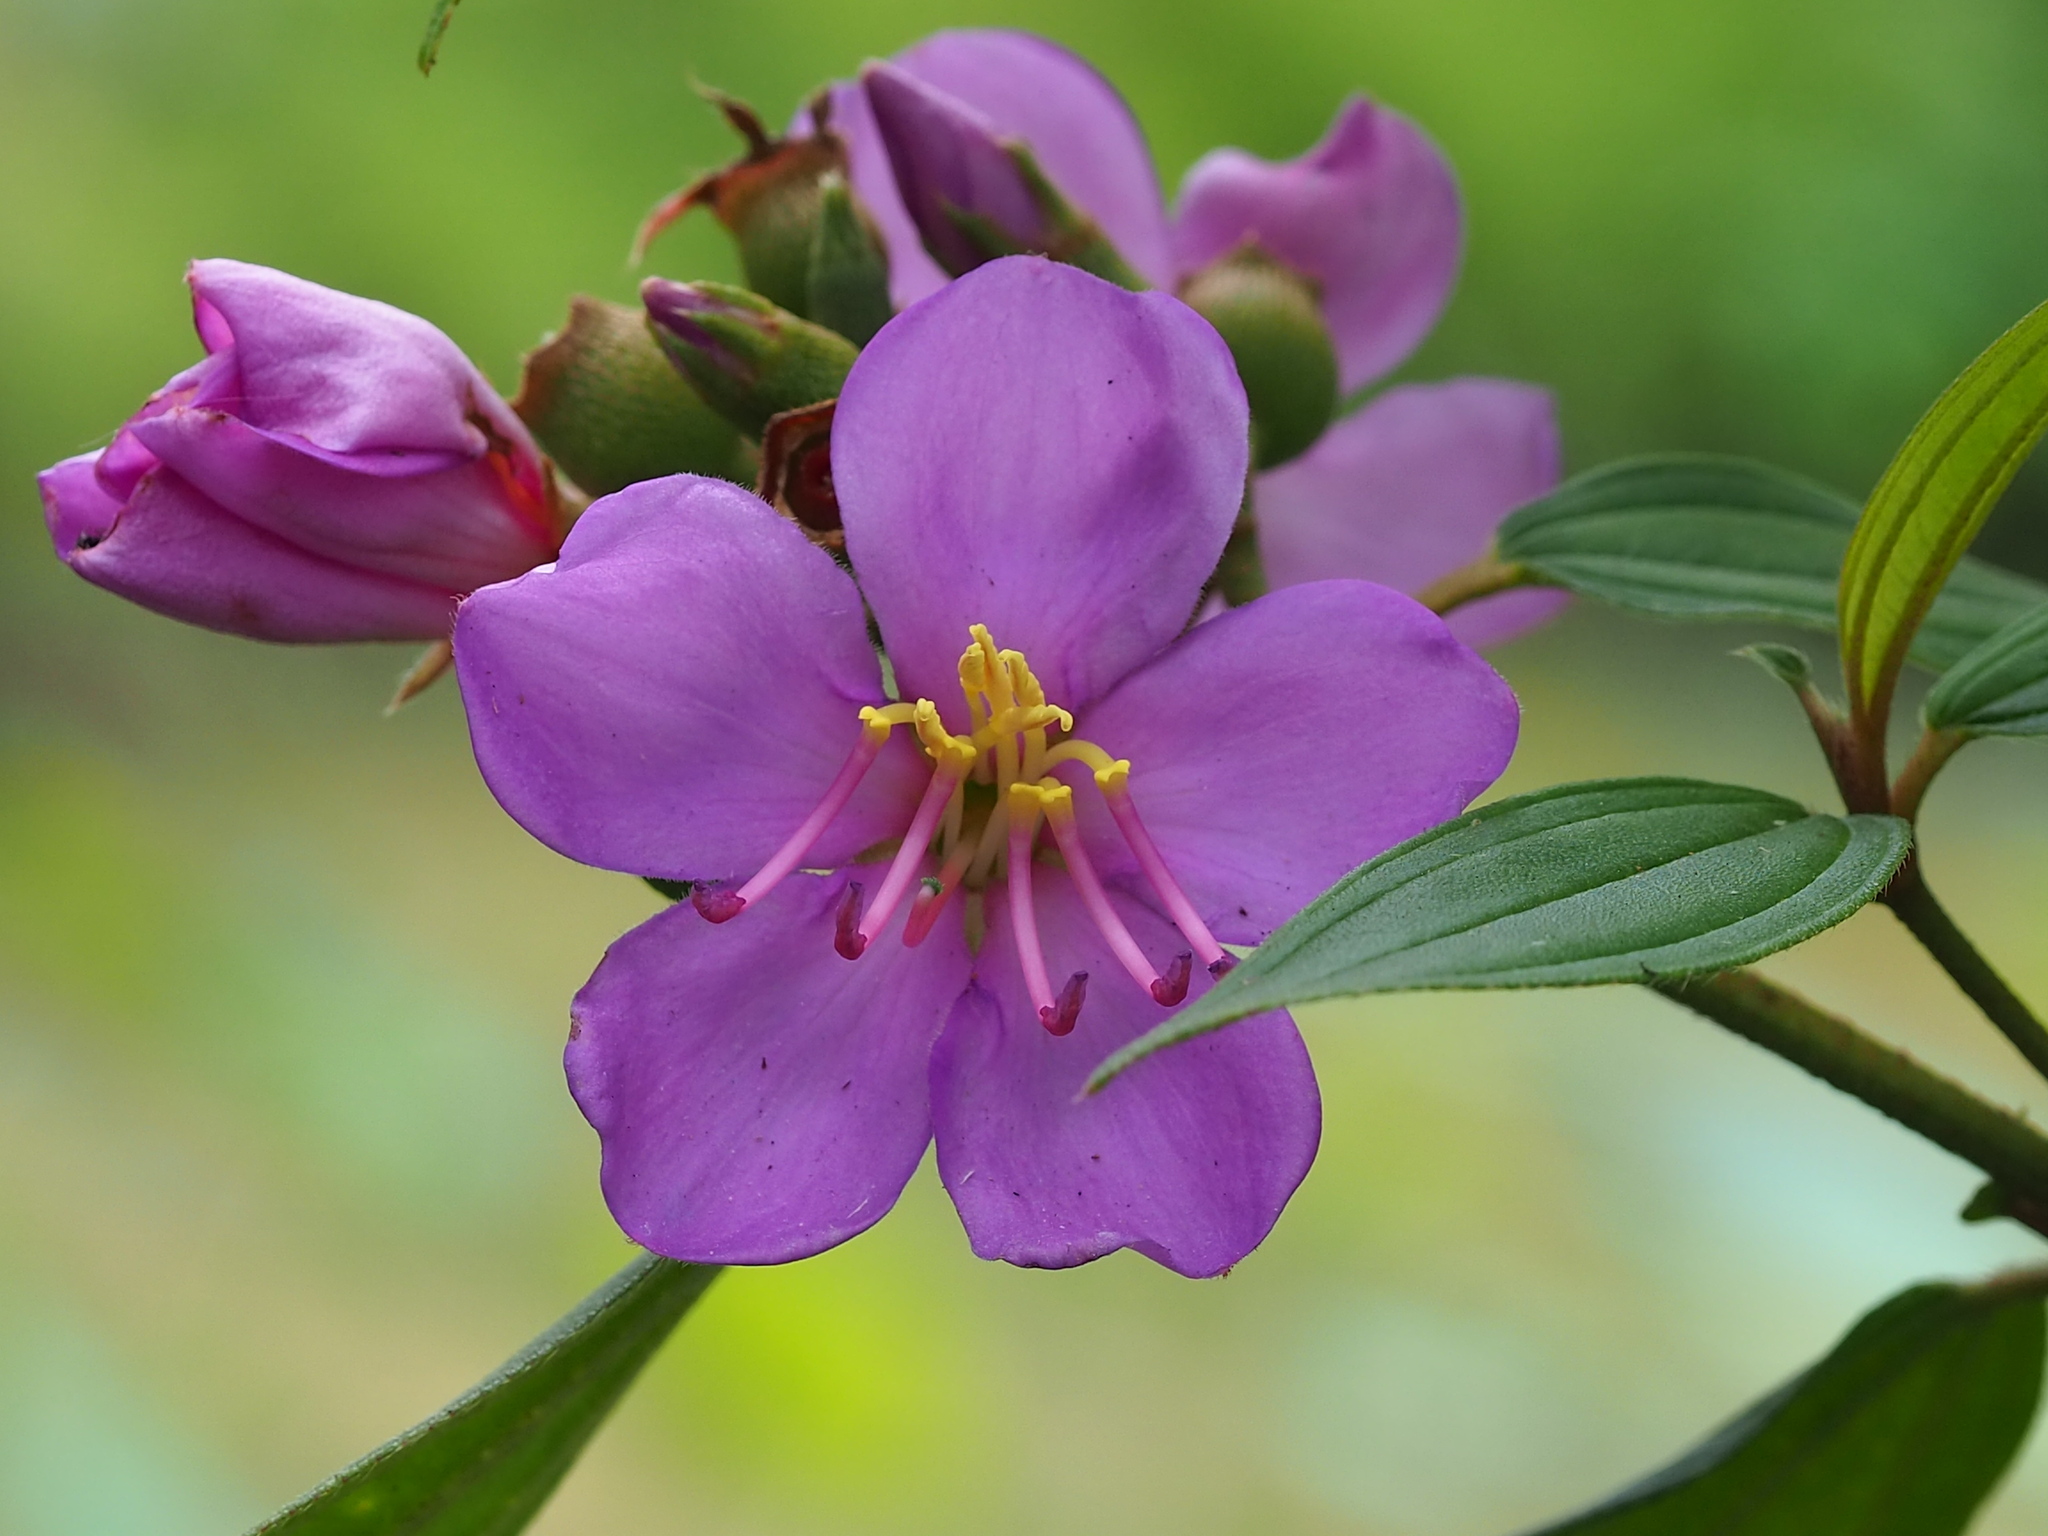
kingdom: Plantae
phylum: Tracheophyta
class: Magnoliopsida
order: Myrtales
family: Melastomataceae
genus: Melastoma
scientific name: Melastoma malabathricum
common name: Indian-rhododendron
